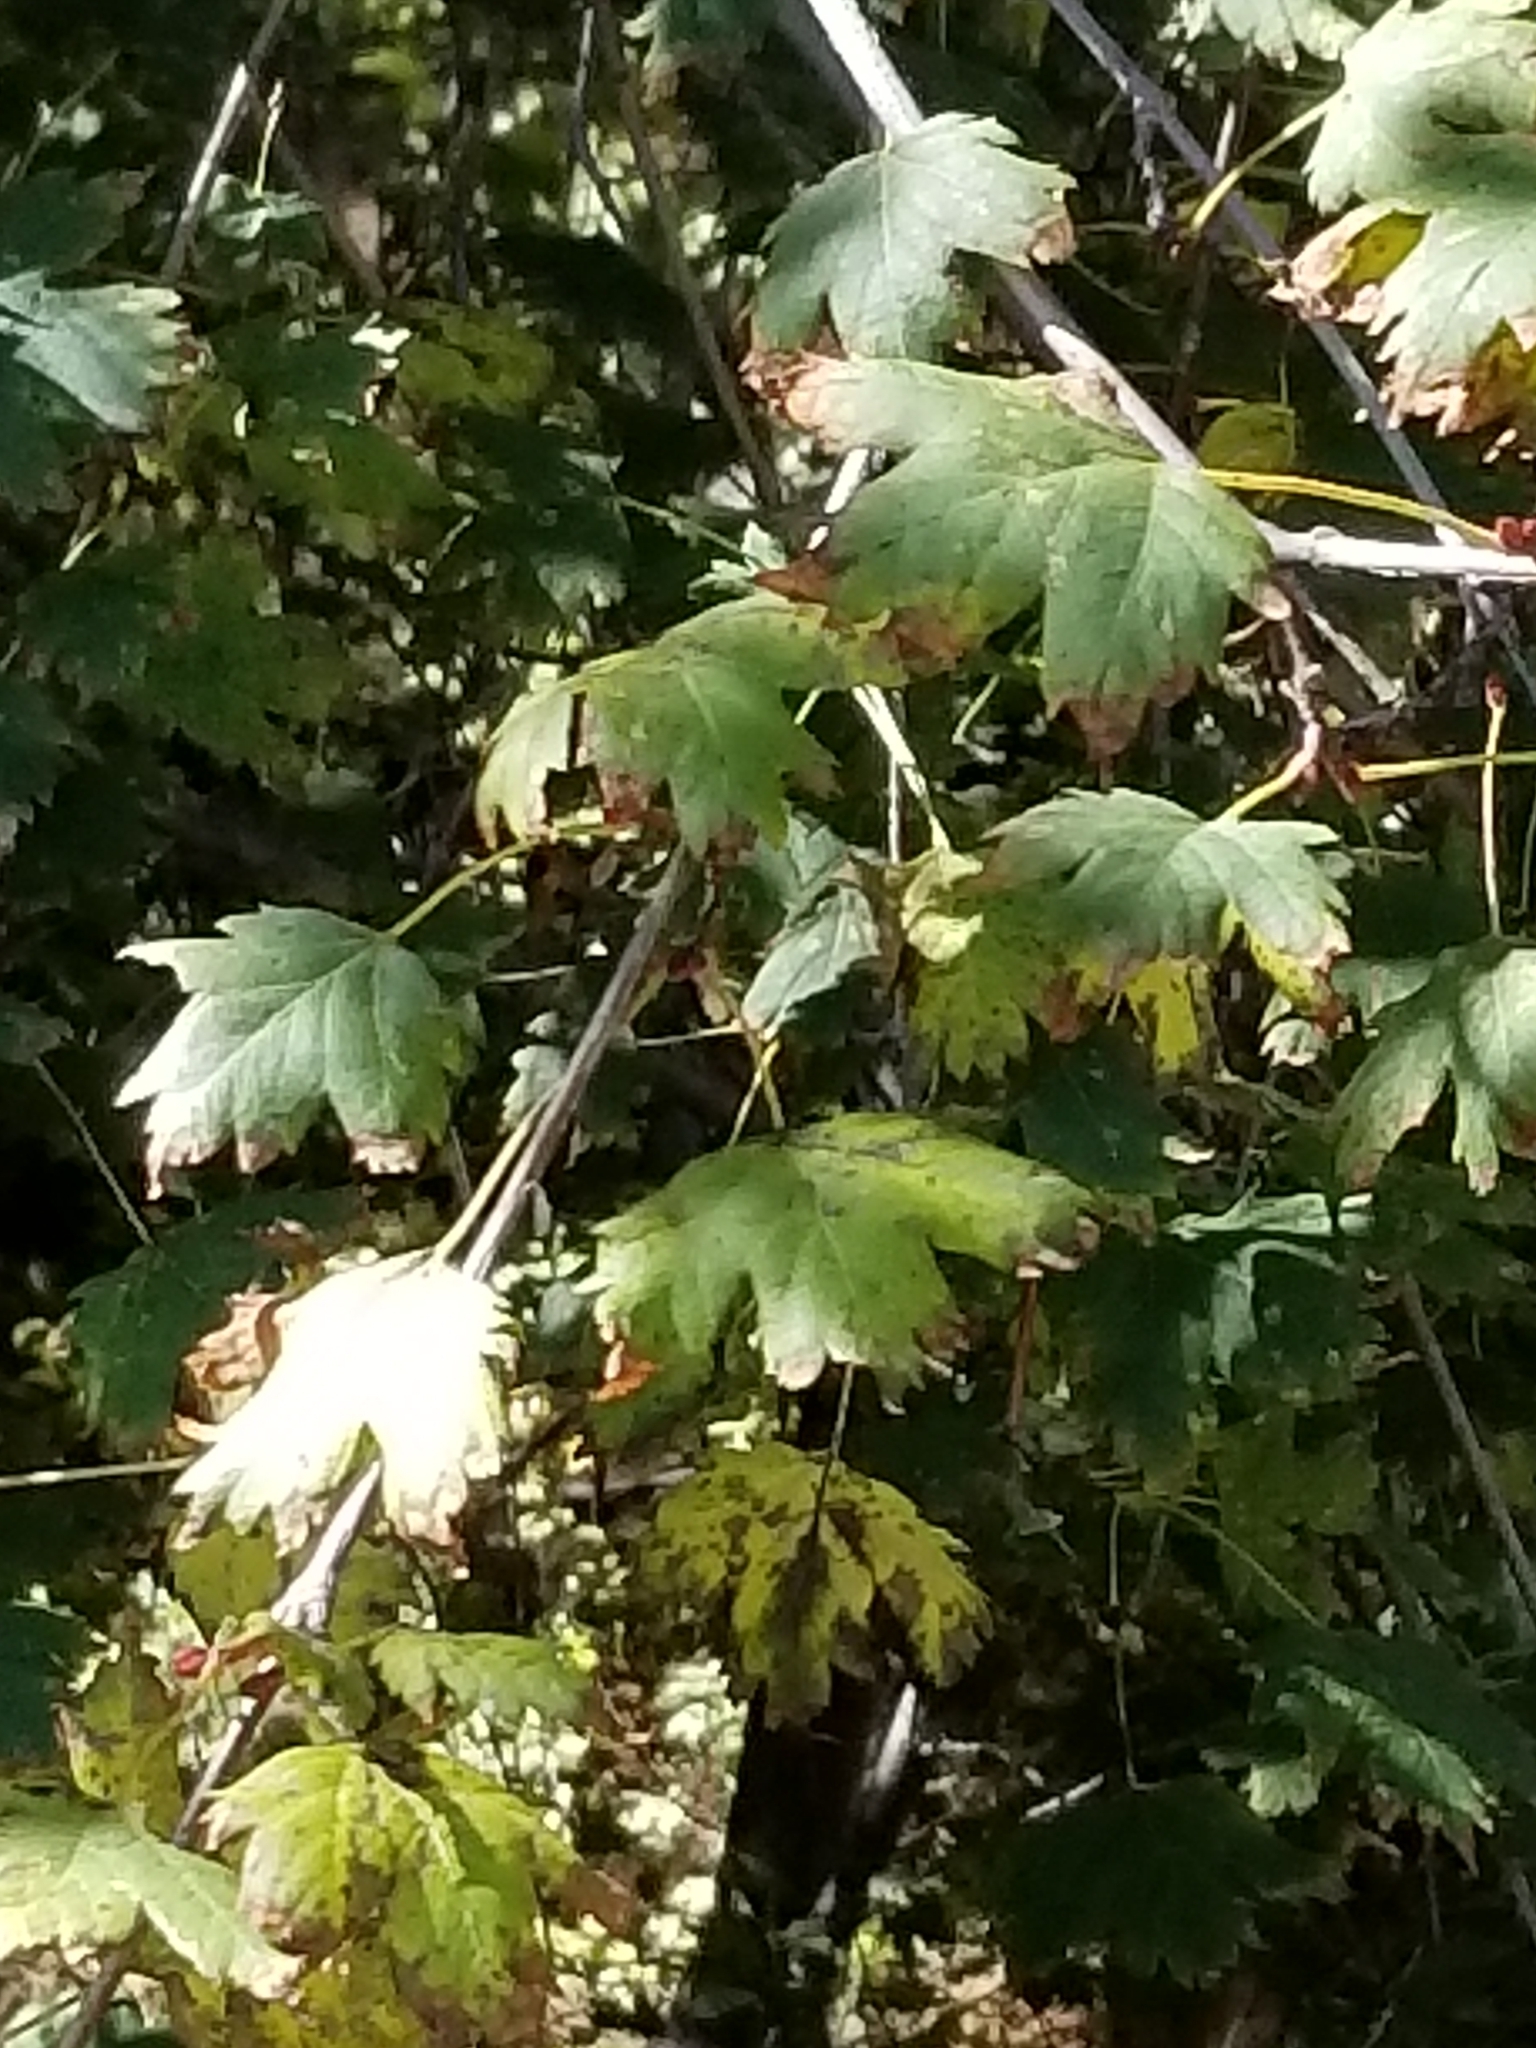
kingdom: Plantae
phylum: Tracheophyta
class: Magnoliopsida
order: Sapindales
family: Sapindaceae
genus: Acer
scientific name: Acer glabrum
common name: Rocky mountain maple
